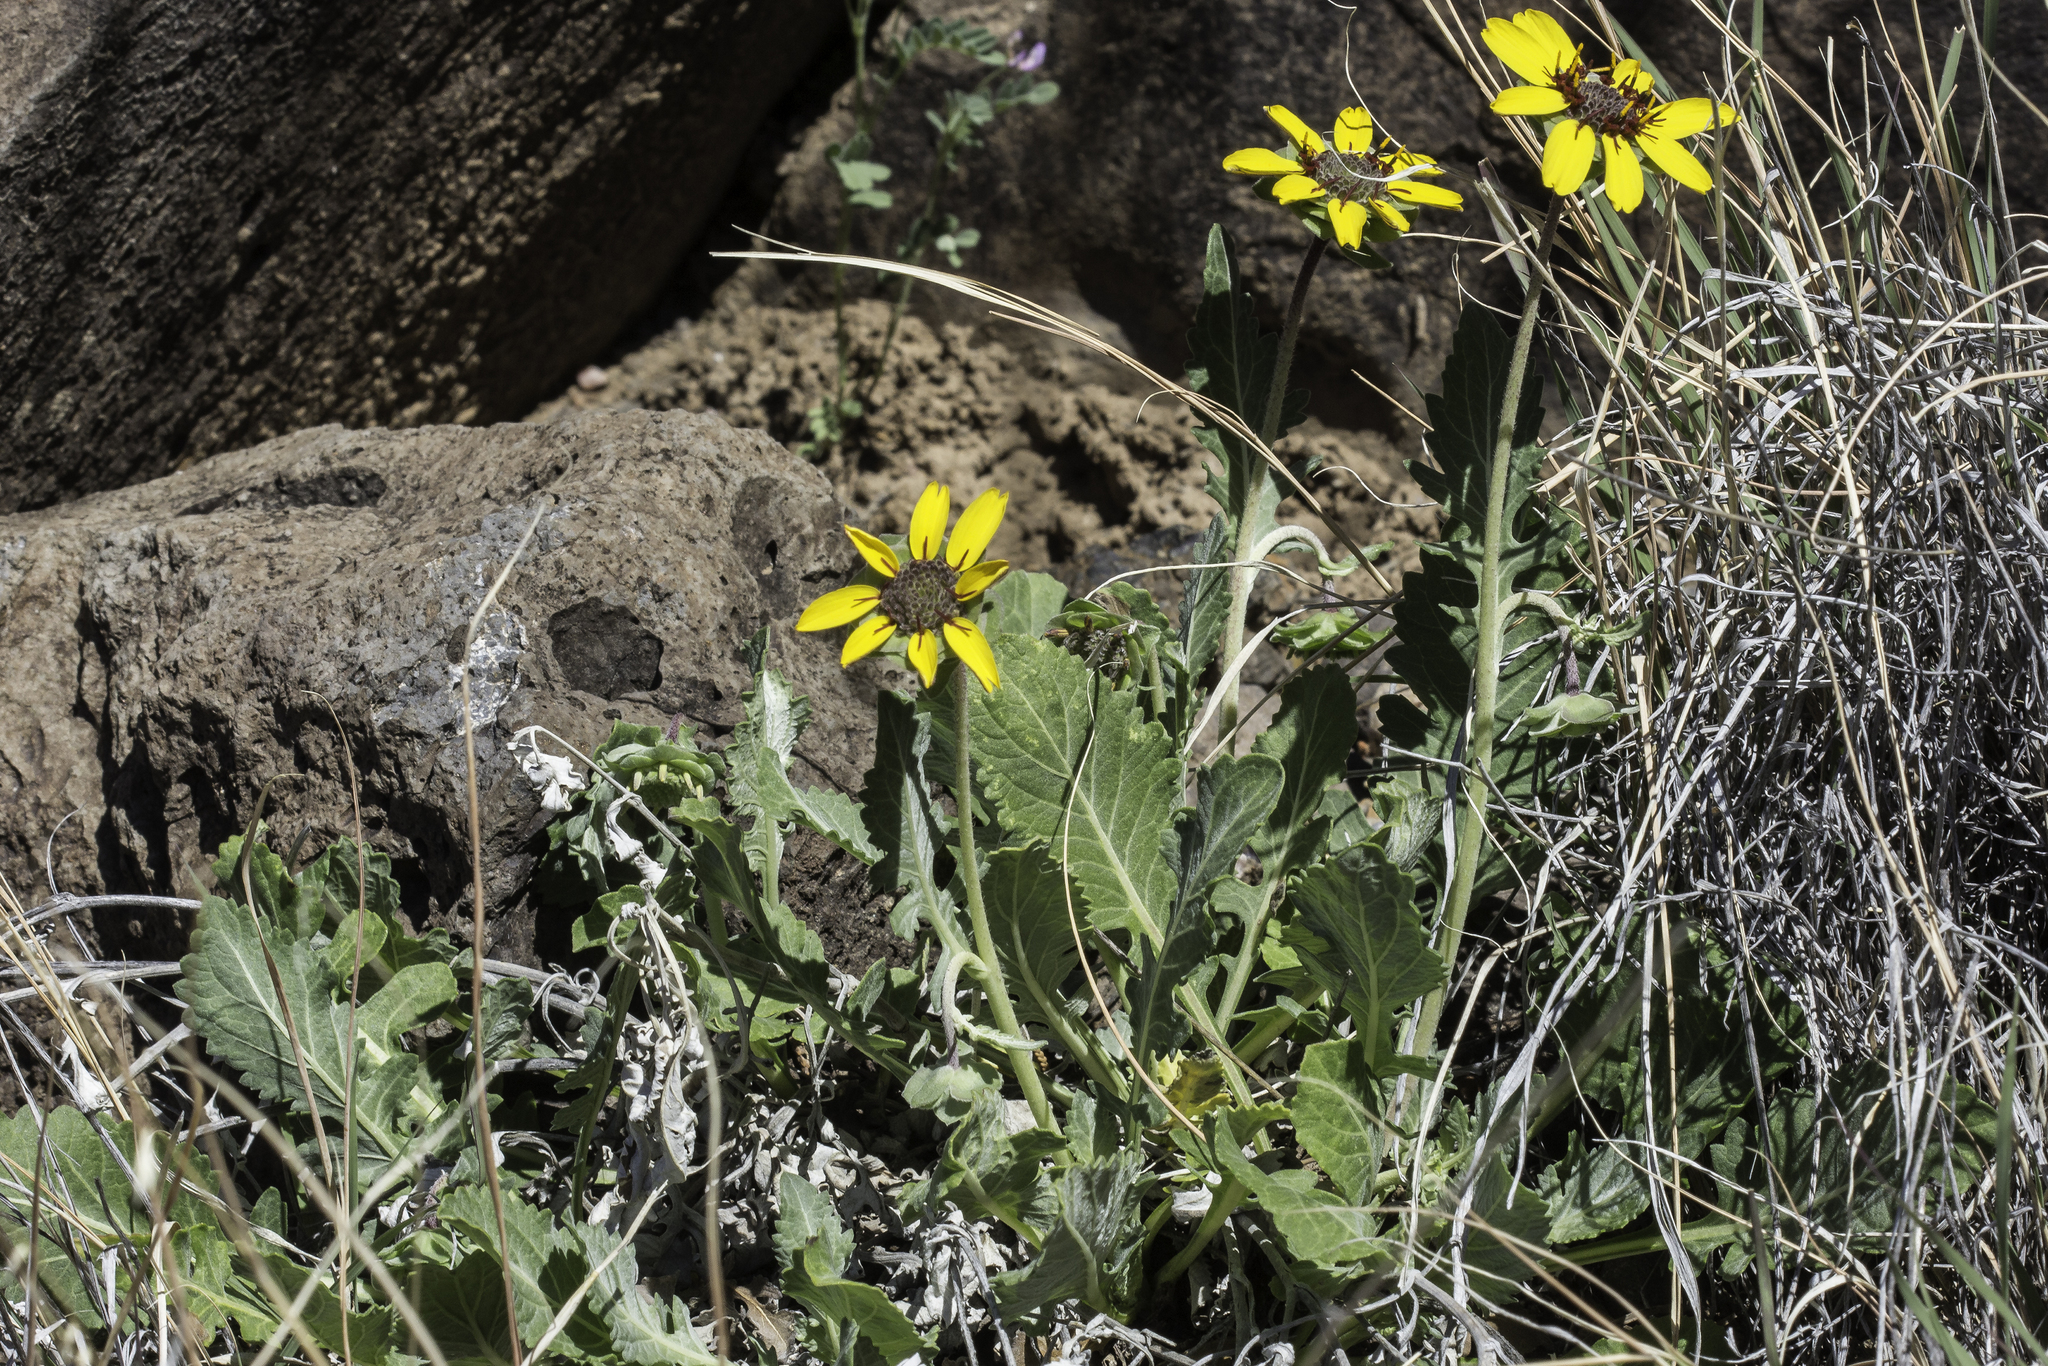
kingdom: Plantae
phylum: Tracheophyta
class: Magnoliopsida
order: Asterales
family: Asteraceae
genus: Berlandiera
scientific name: Berlandiera lyrata
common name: Chocolate-flower
